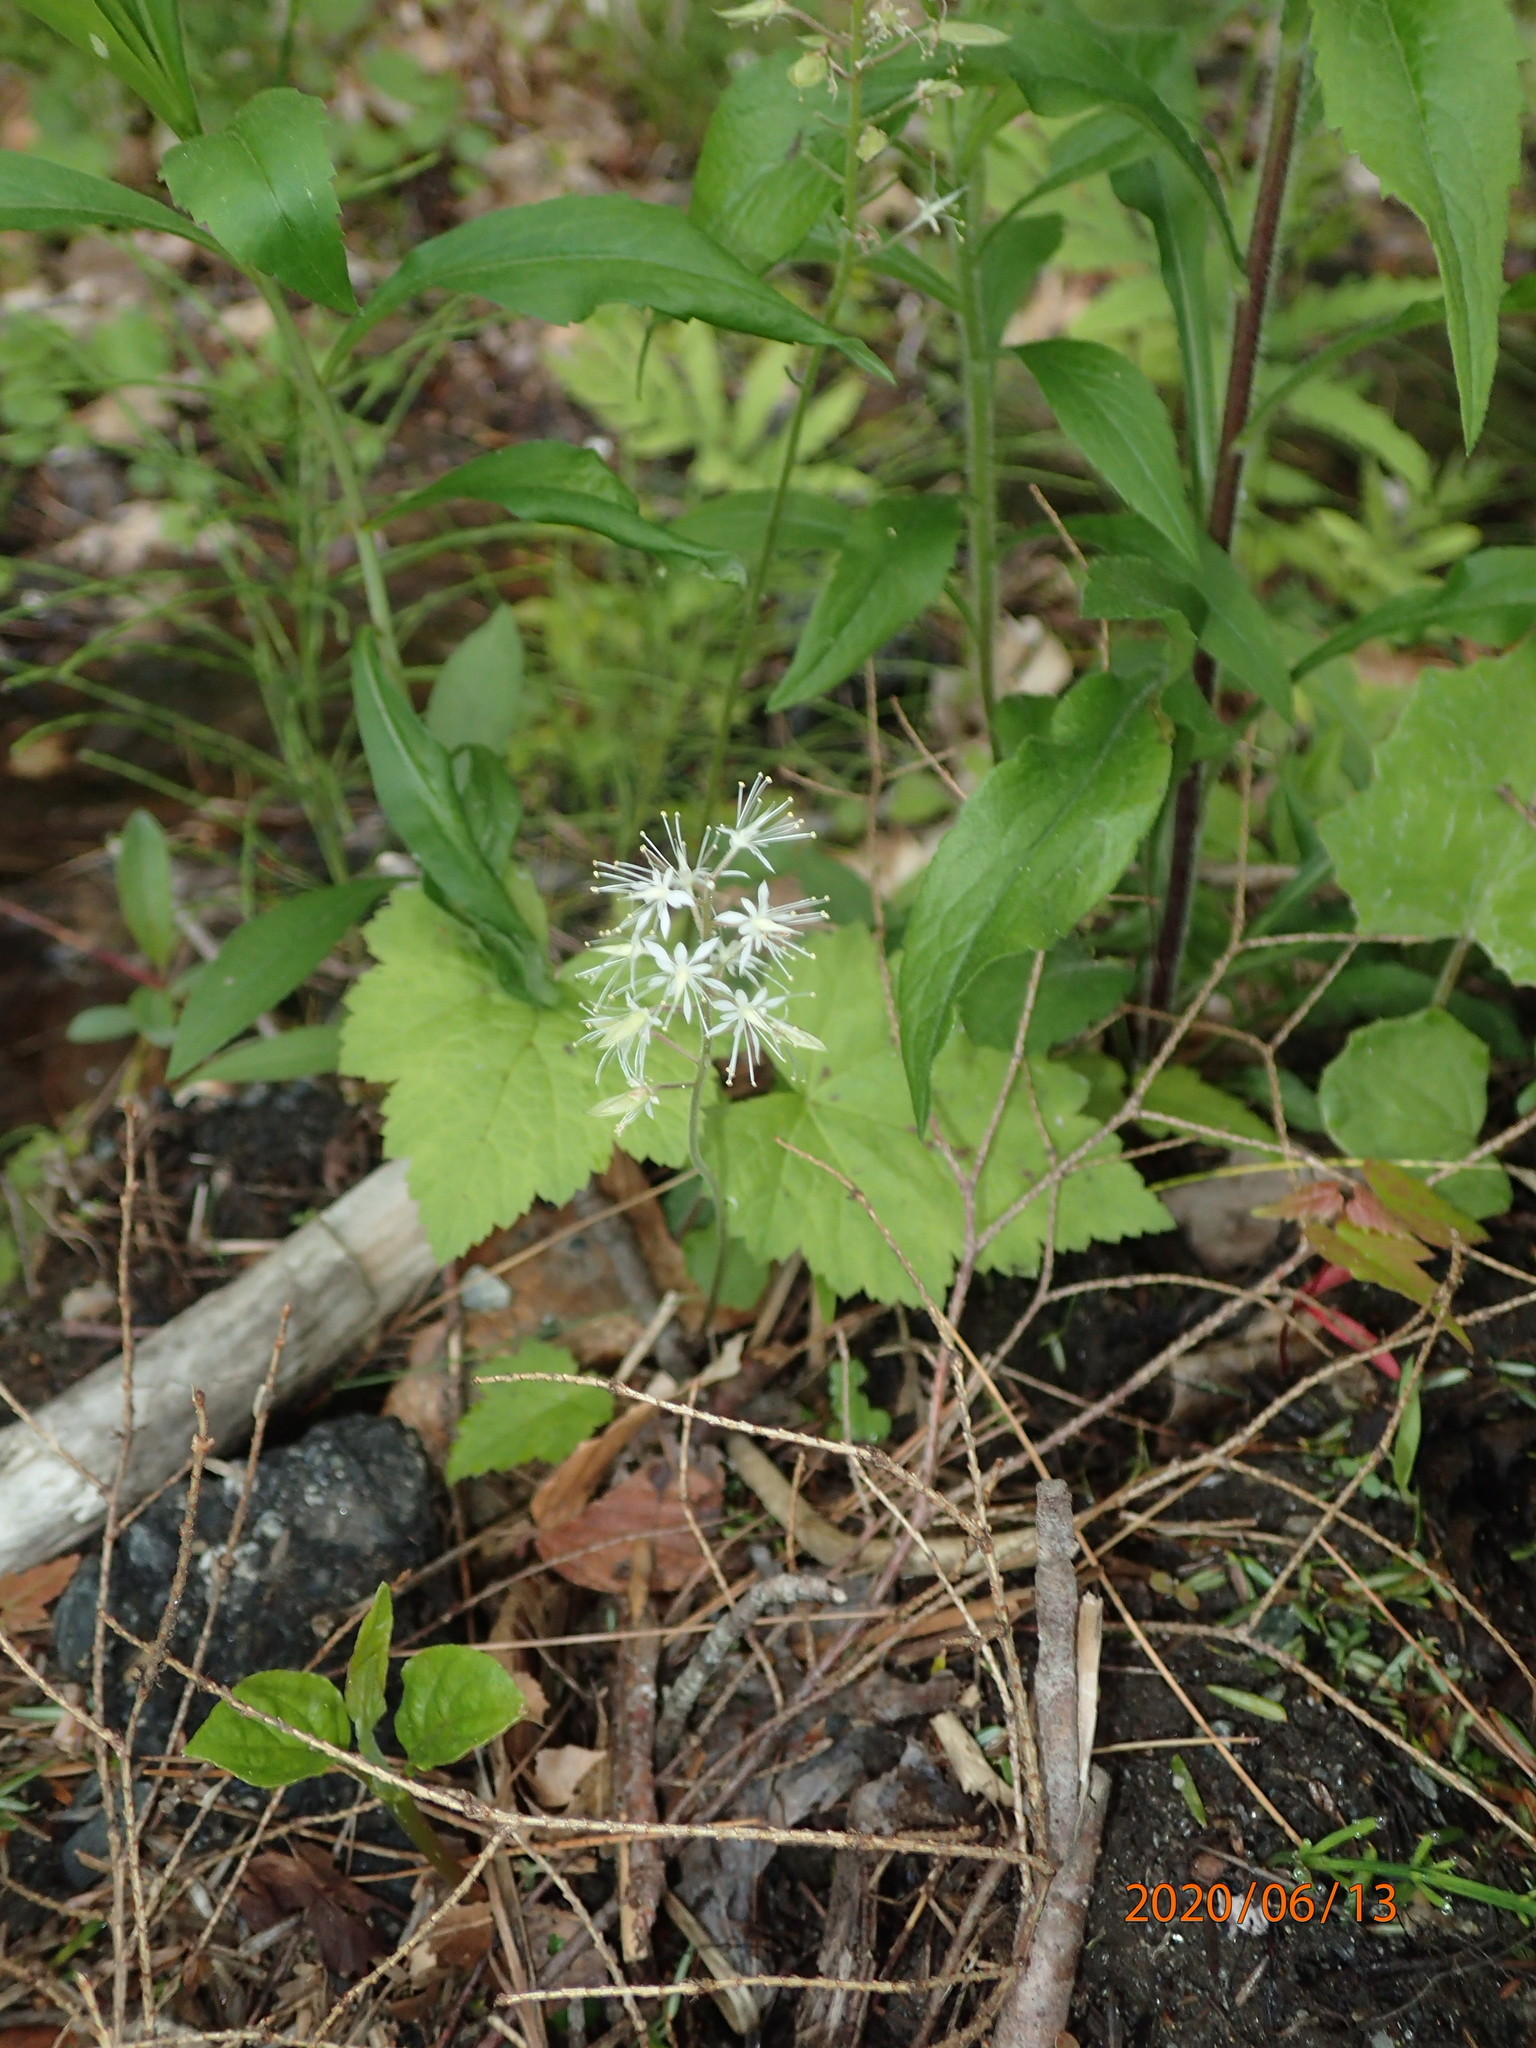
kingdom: Plantae
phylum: Tracheophyta
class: Magnoliopsida
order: Saxifragales
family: Saxifragaceae
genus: Tiarella
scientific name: Tiarella stolonifera
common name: Stoloniferous foamflower
